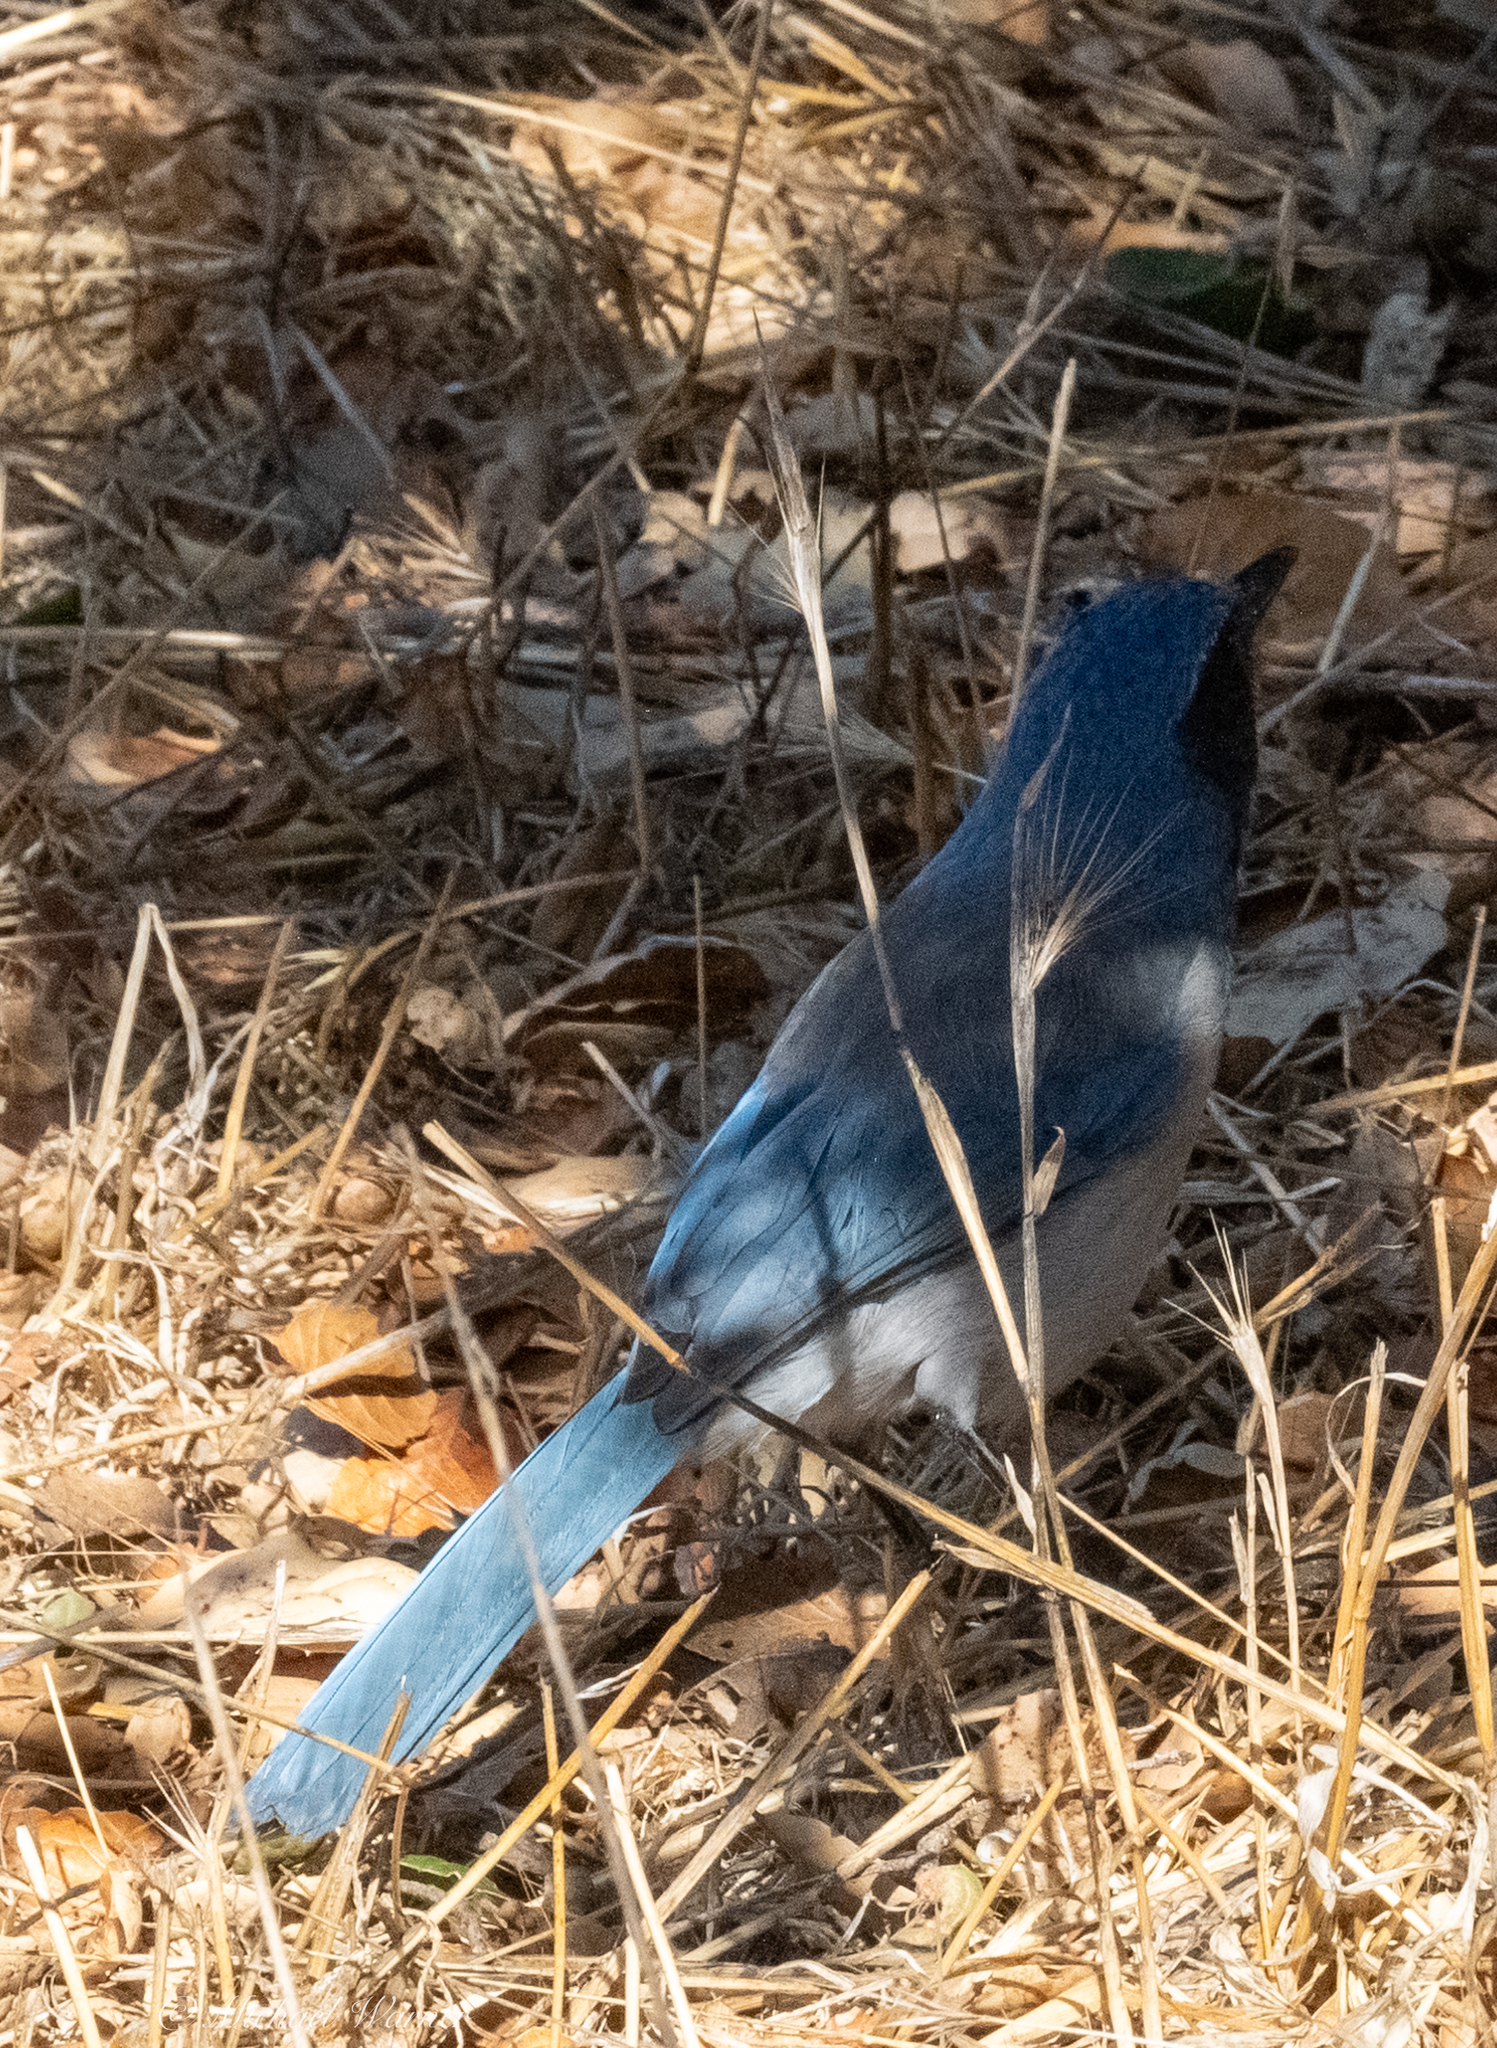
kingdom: Animalia
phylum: Chordata
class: Aves
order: Passeriformes
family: Corvidae
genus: Aphelocoma
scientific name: Aphelocoma californica
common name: California scrub-jay
